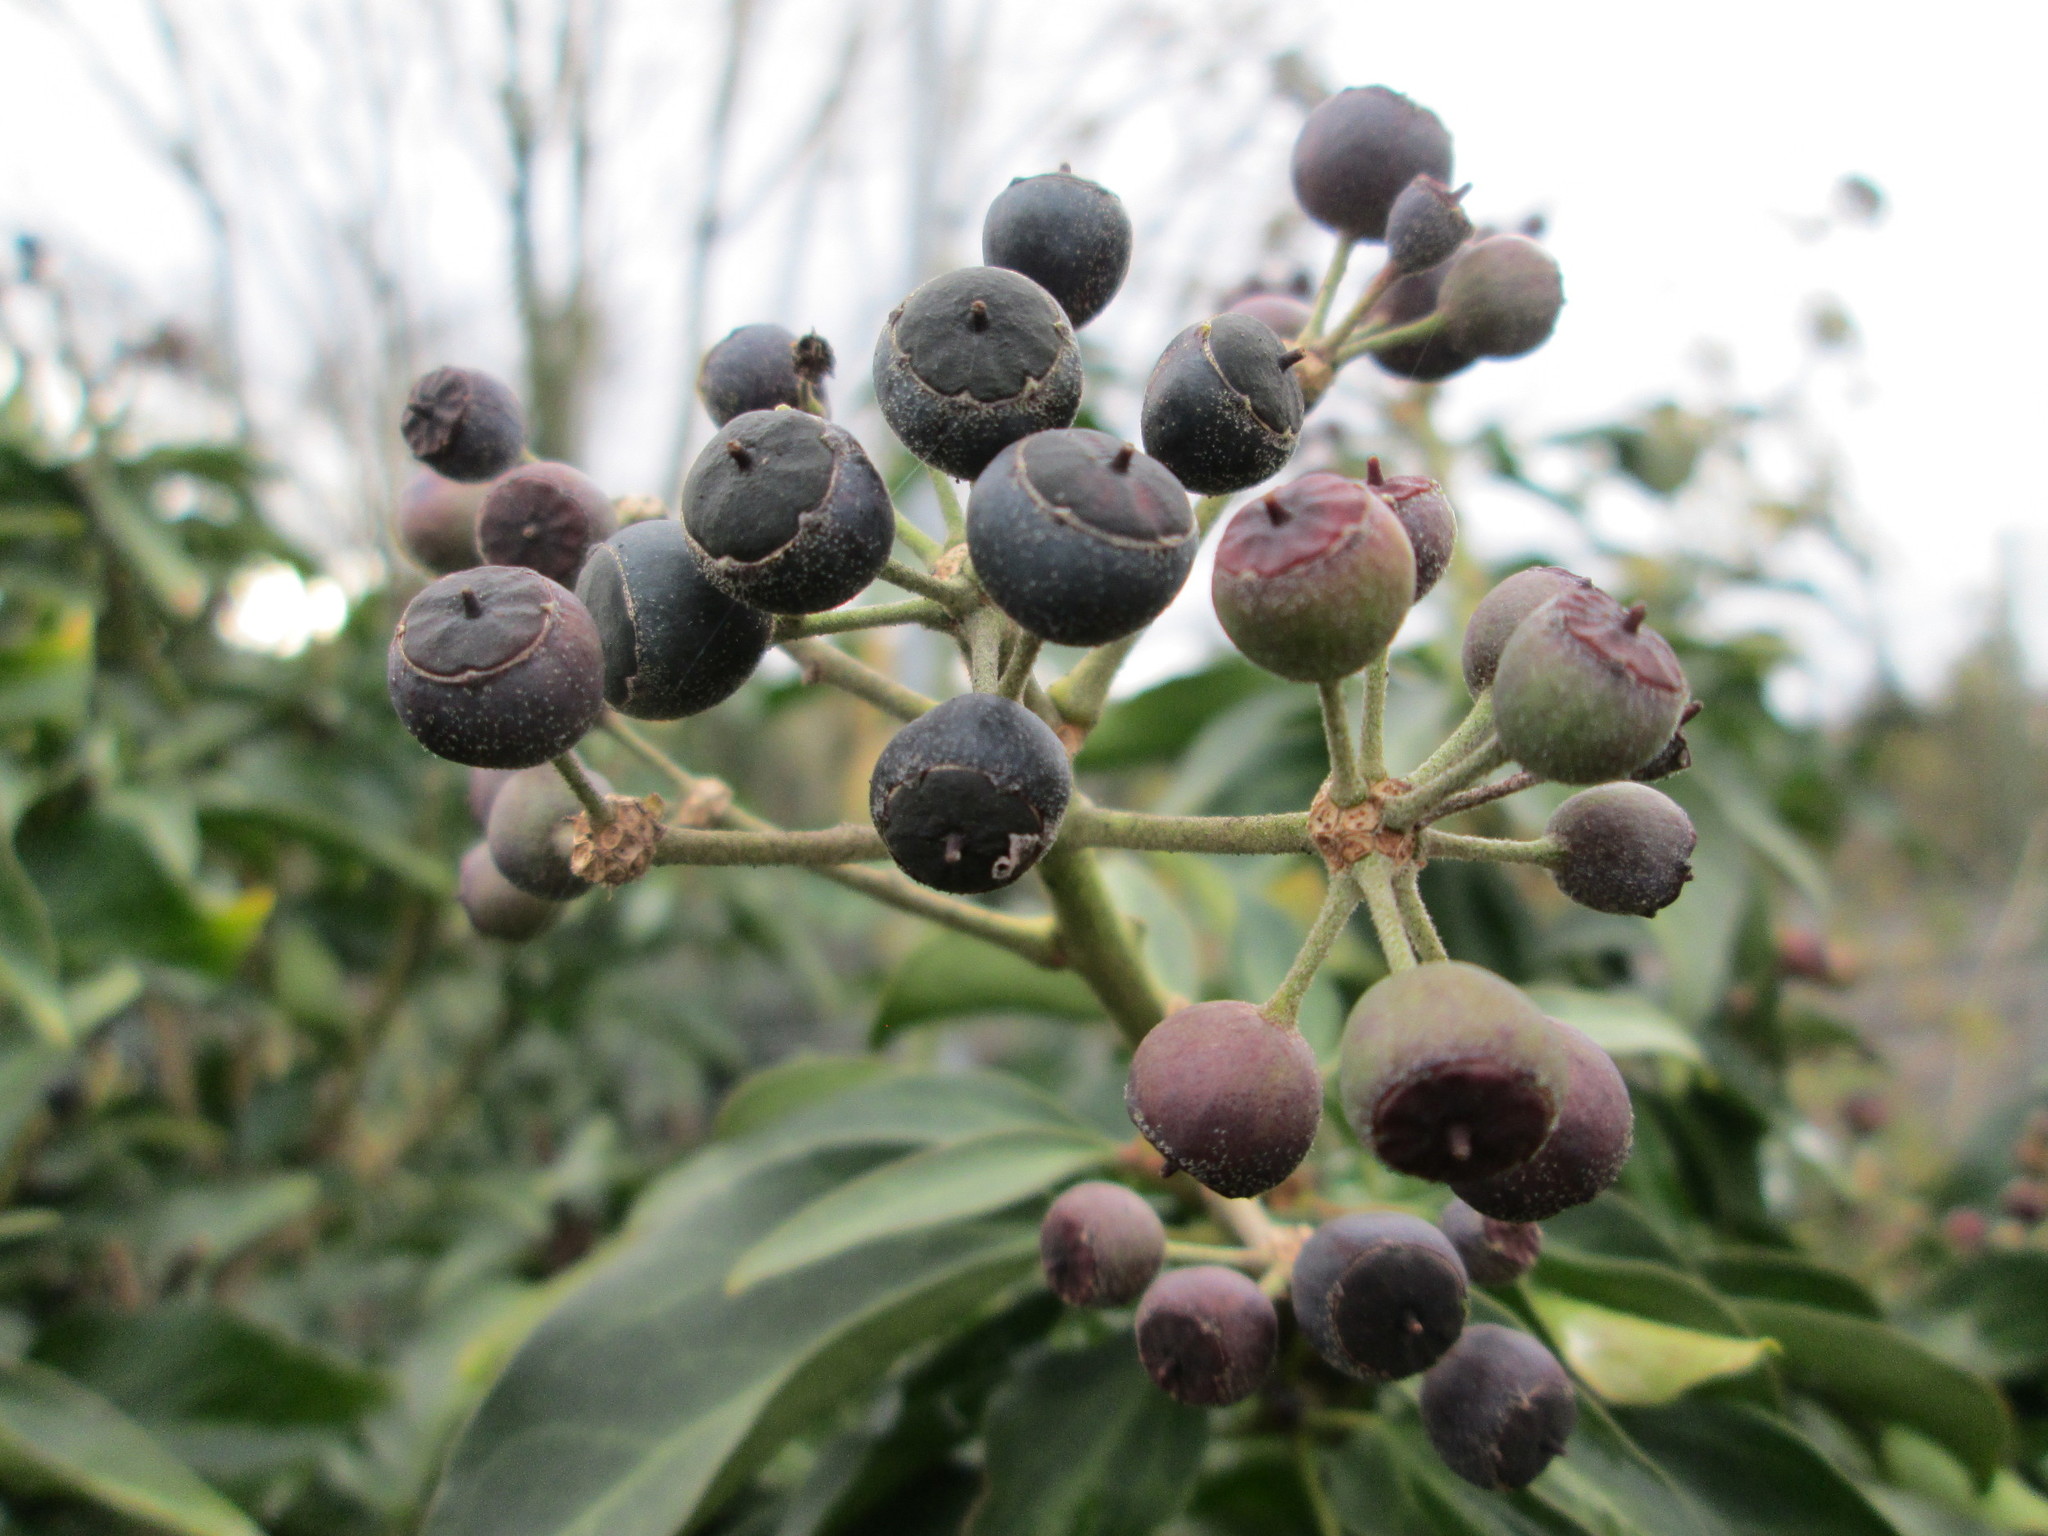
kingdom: Plantae
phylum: Tracheophyta
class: Magnoliopsida
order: Apiales
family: Araliaceae
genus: Hedera
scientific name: Hedera helix
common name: Ivy
